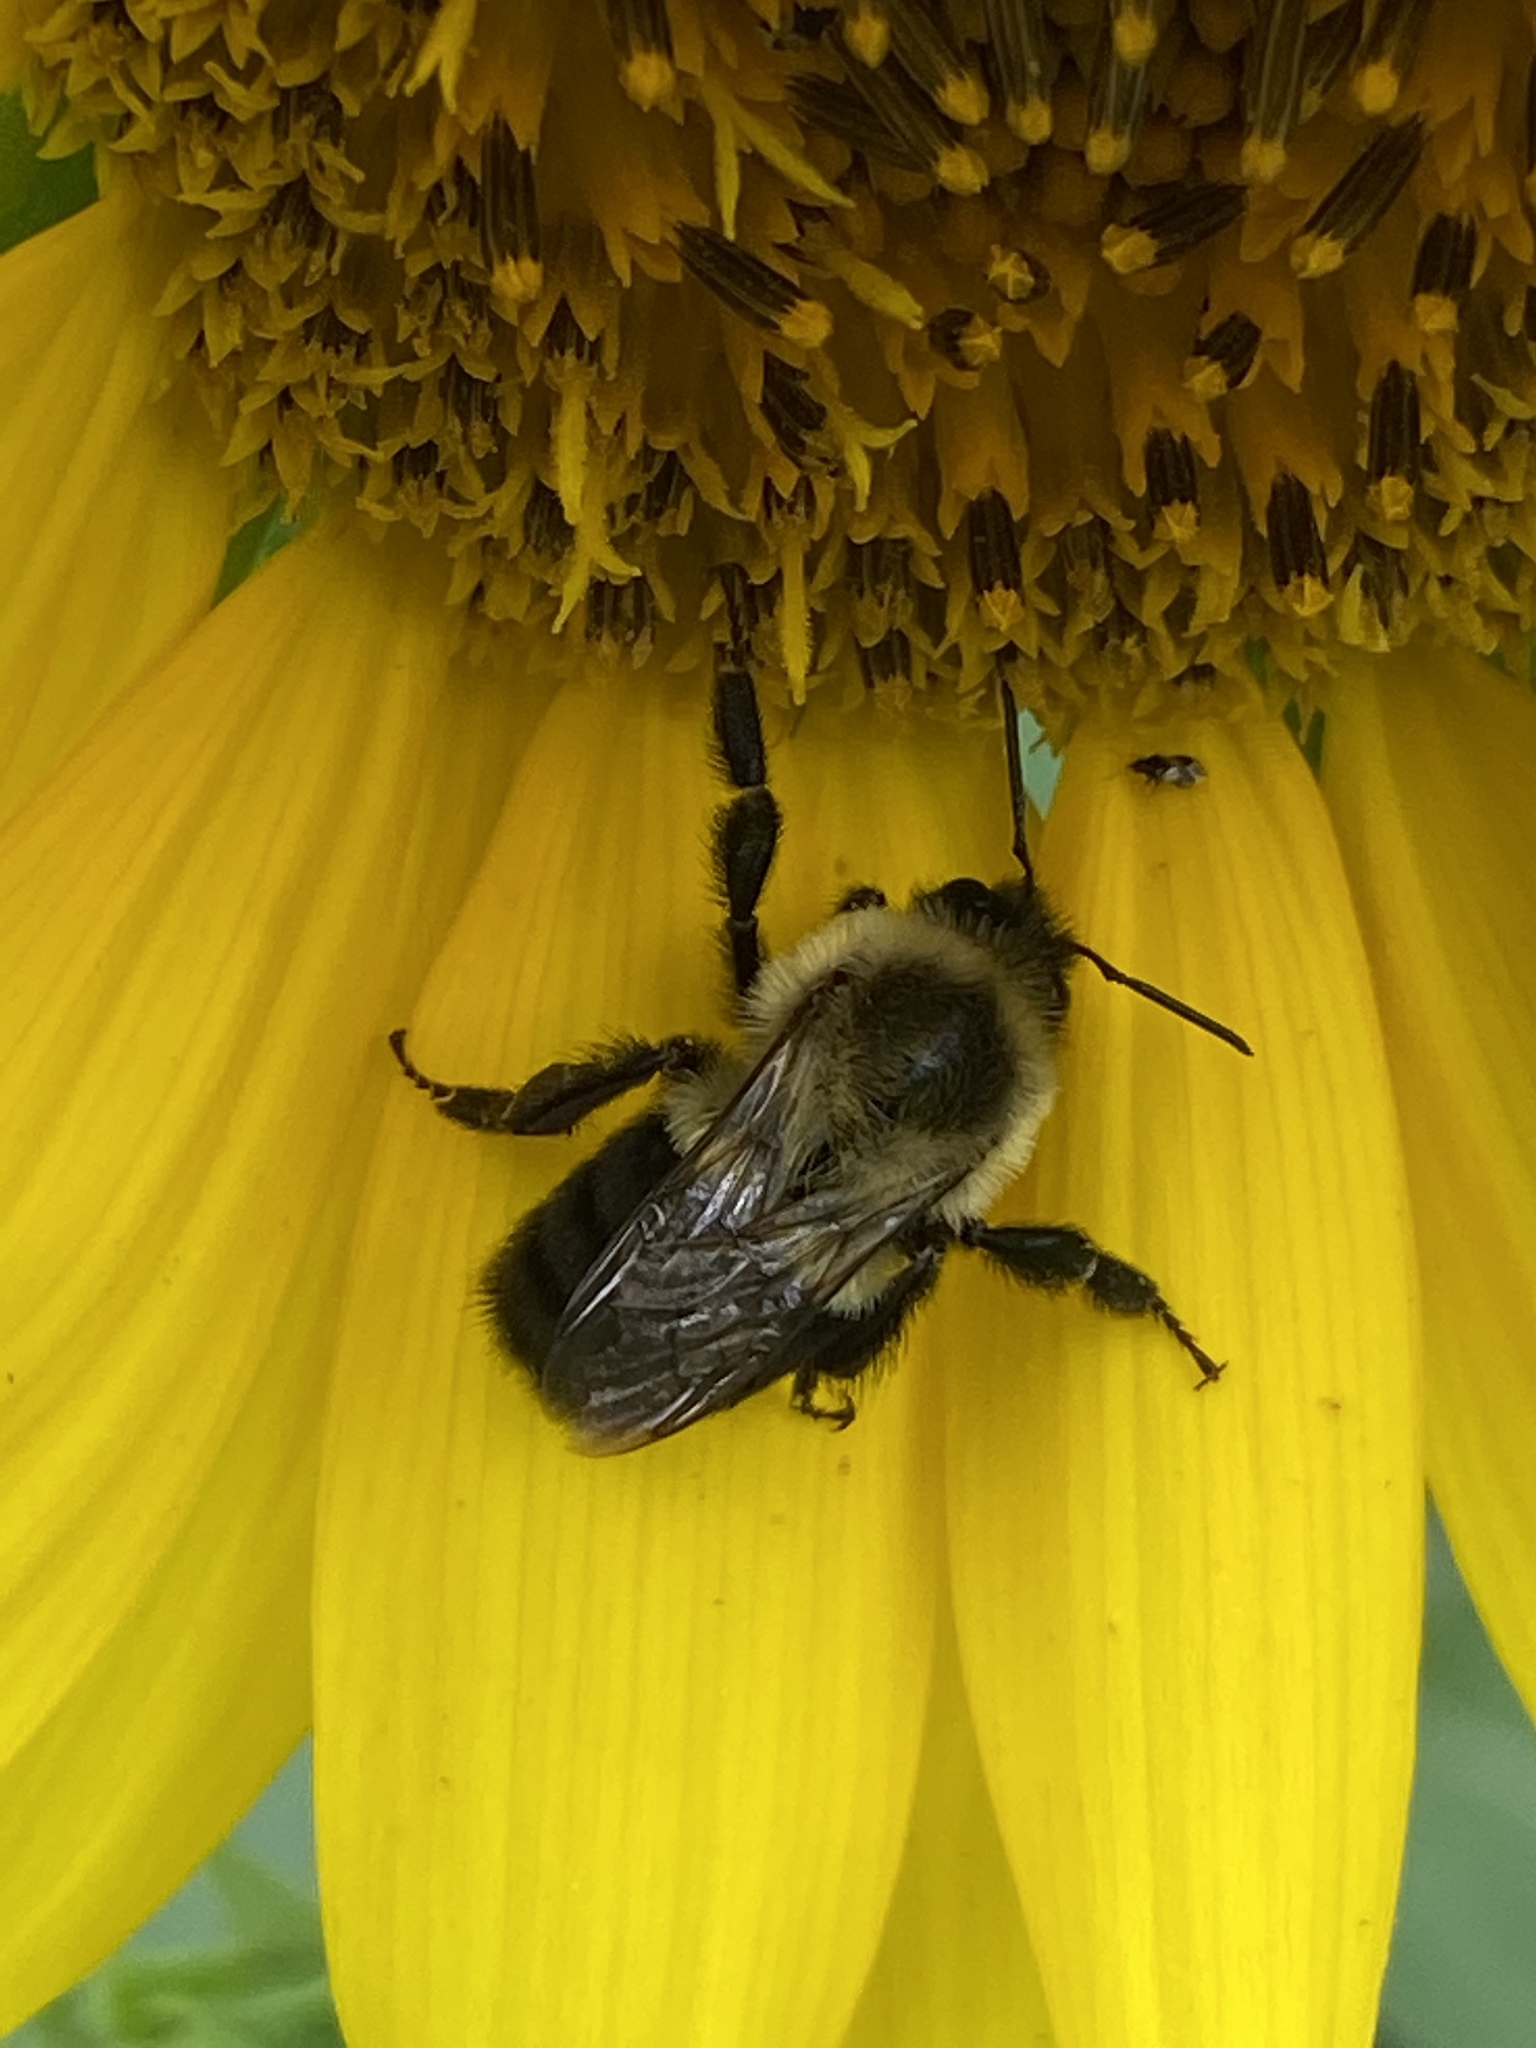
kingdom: Animalia
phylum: Arthropoda
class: Insecta
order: Hymenoptera
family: Apidae
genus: Bombus
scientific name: Bombus impatiens
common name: Common eastern bumble bee
